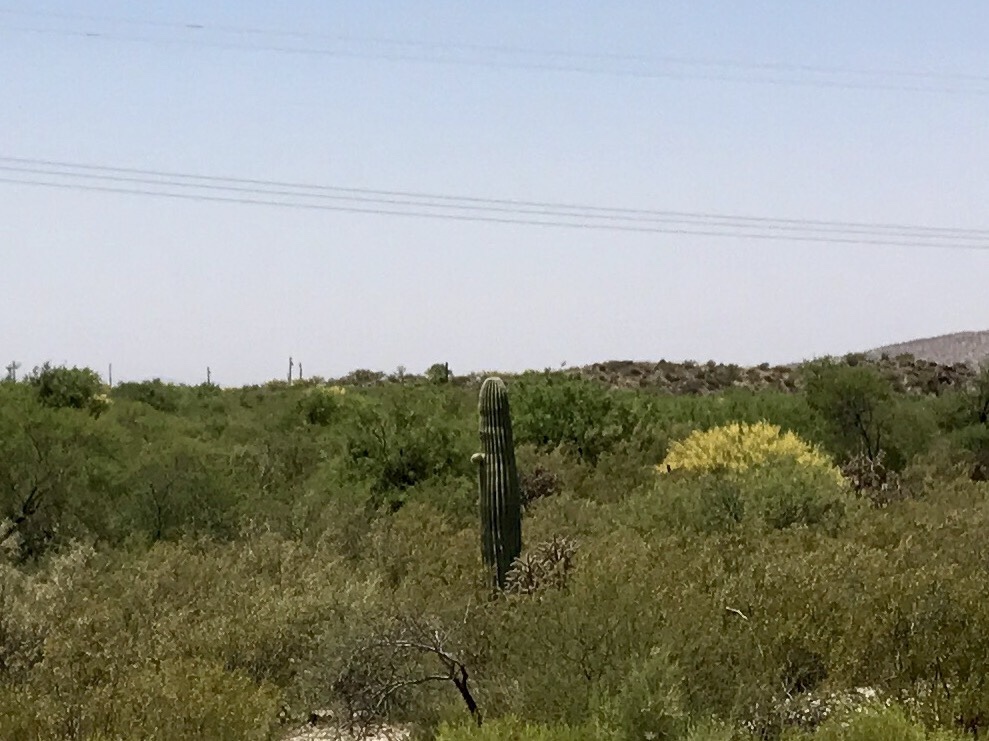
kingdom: Plantae
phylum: Tracheophyta
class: Magnoliopsida
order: Caryophyllales
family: Cactaceae
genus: Carnegiea
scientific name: Carnegiea gigantea
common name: Saguaro
